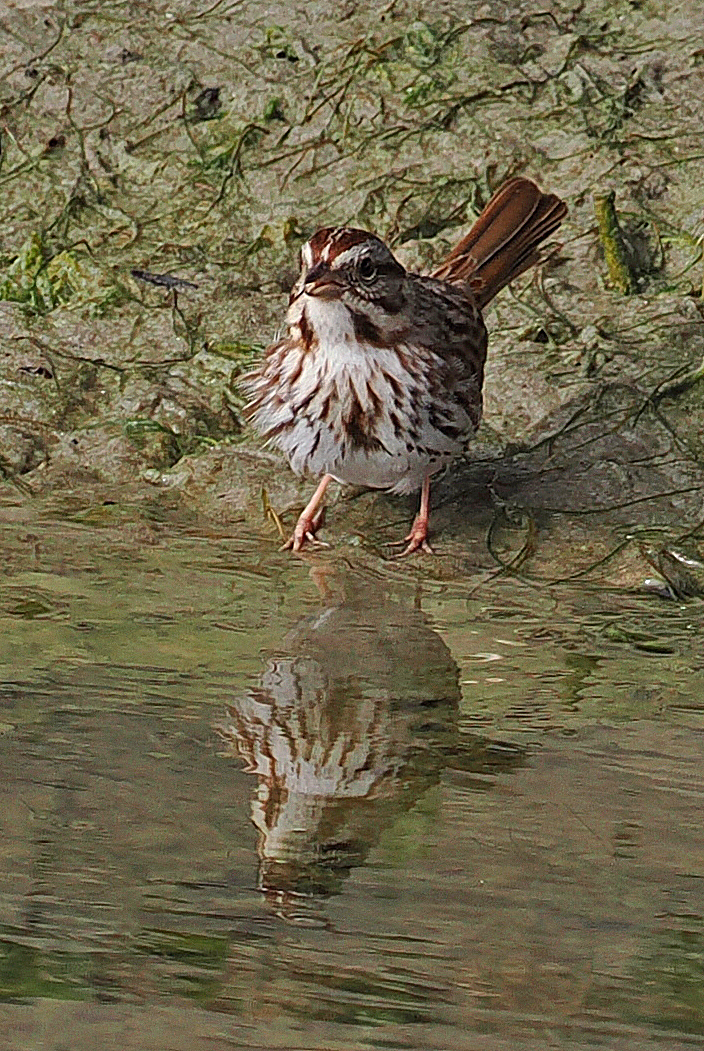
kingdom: Animalia
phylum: Chordata
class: Aves
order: Passeriformes
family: Passerellidae
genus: Melospiza
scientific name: Melospiza melodia
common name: Song sparrow
